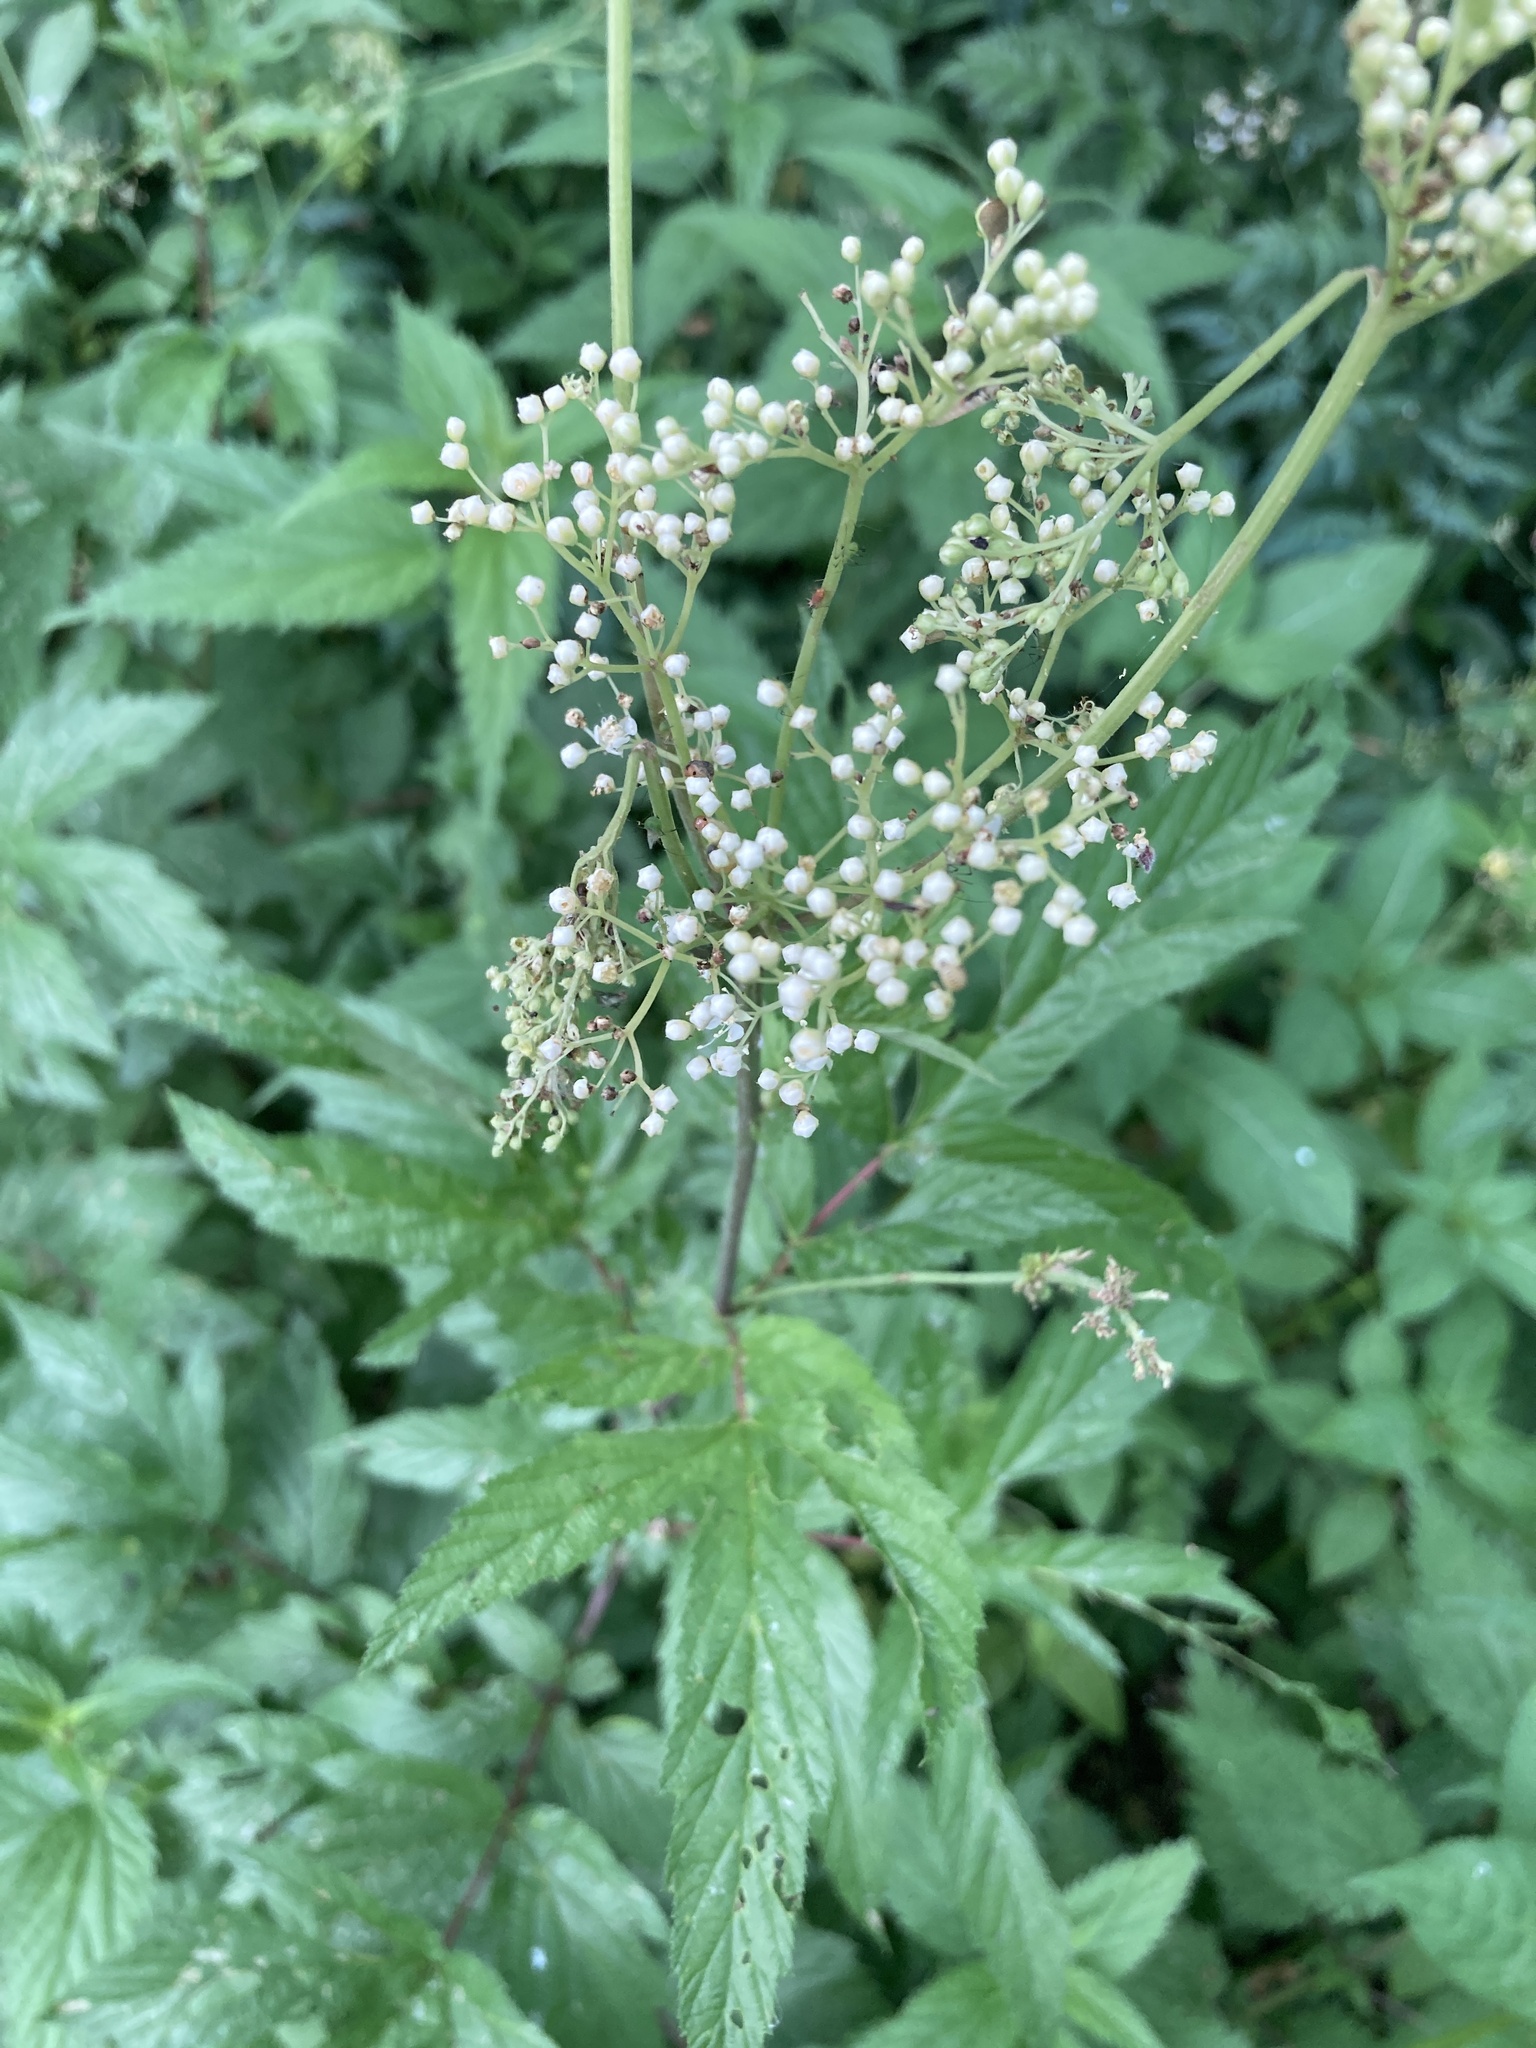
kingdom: Plantae
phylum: Tracheophyta
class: Magnoliopsida
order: Rosales
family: Rosaceae
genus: Filipendula
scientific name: Filipendula ulmaria
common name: Meadowsweet
